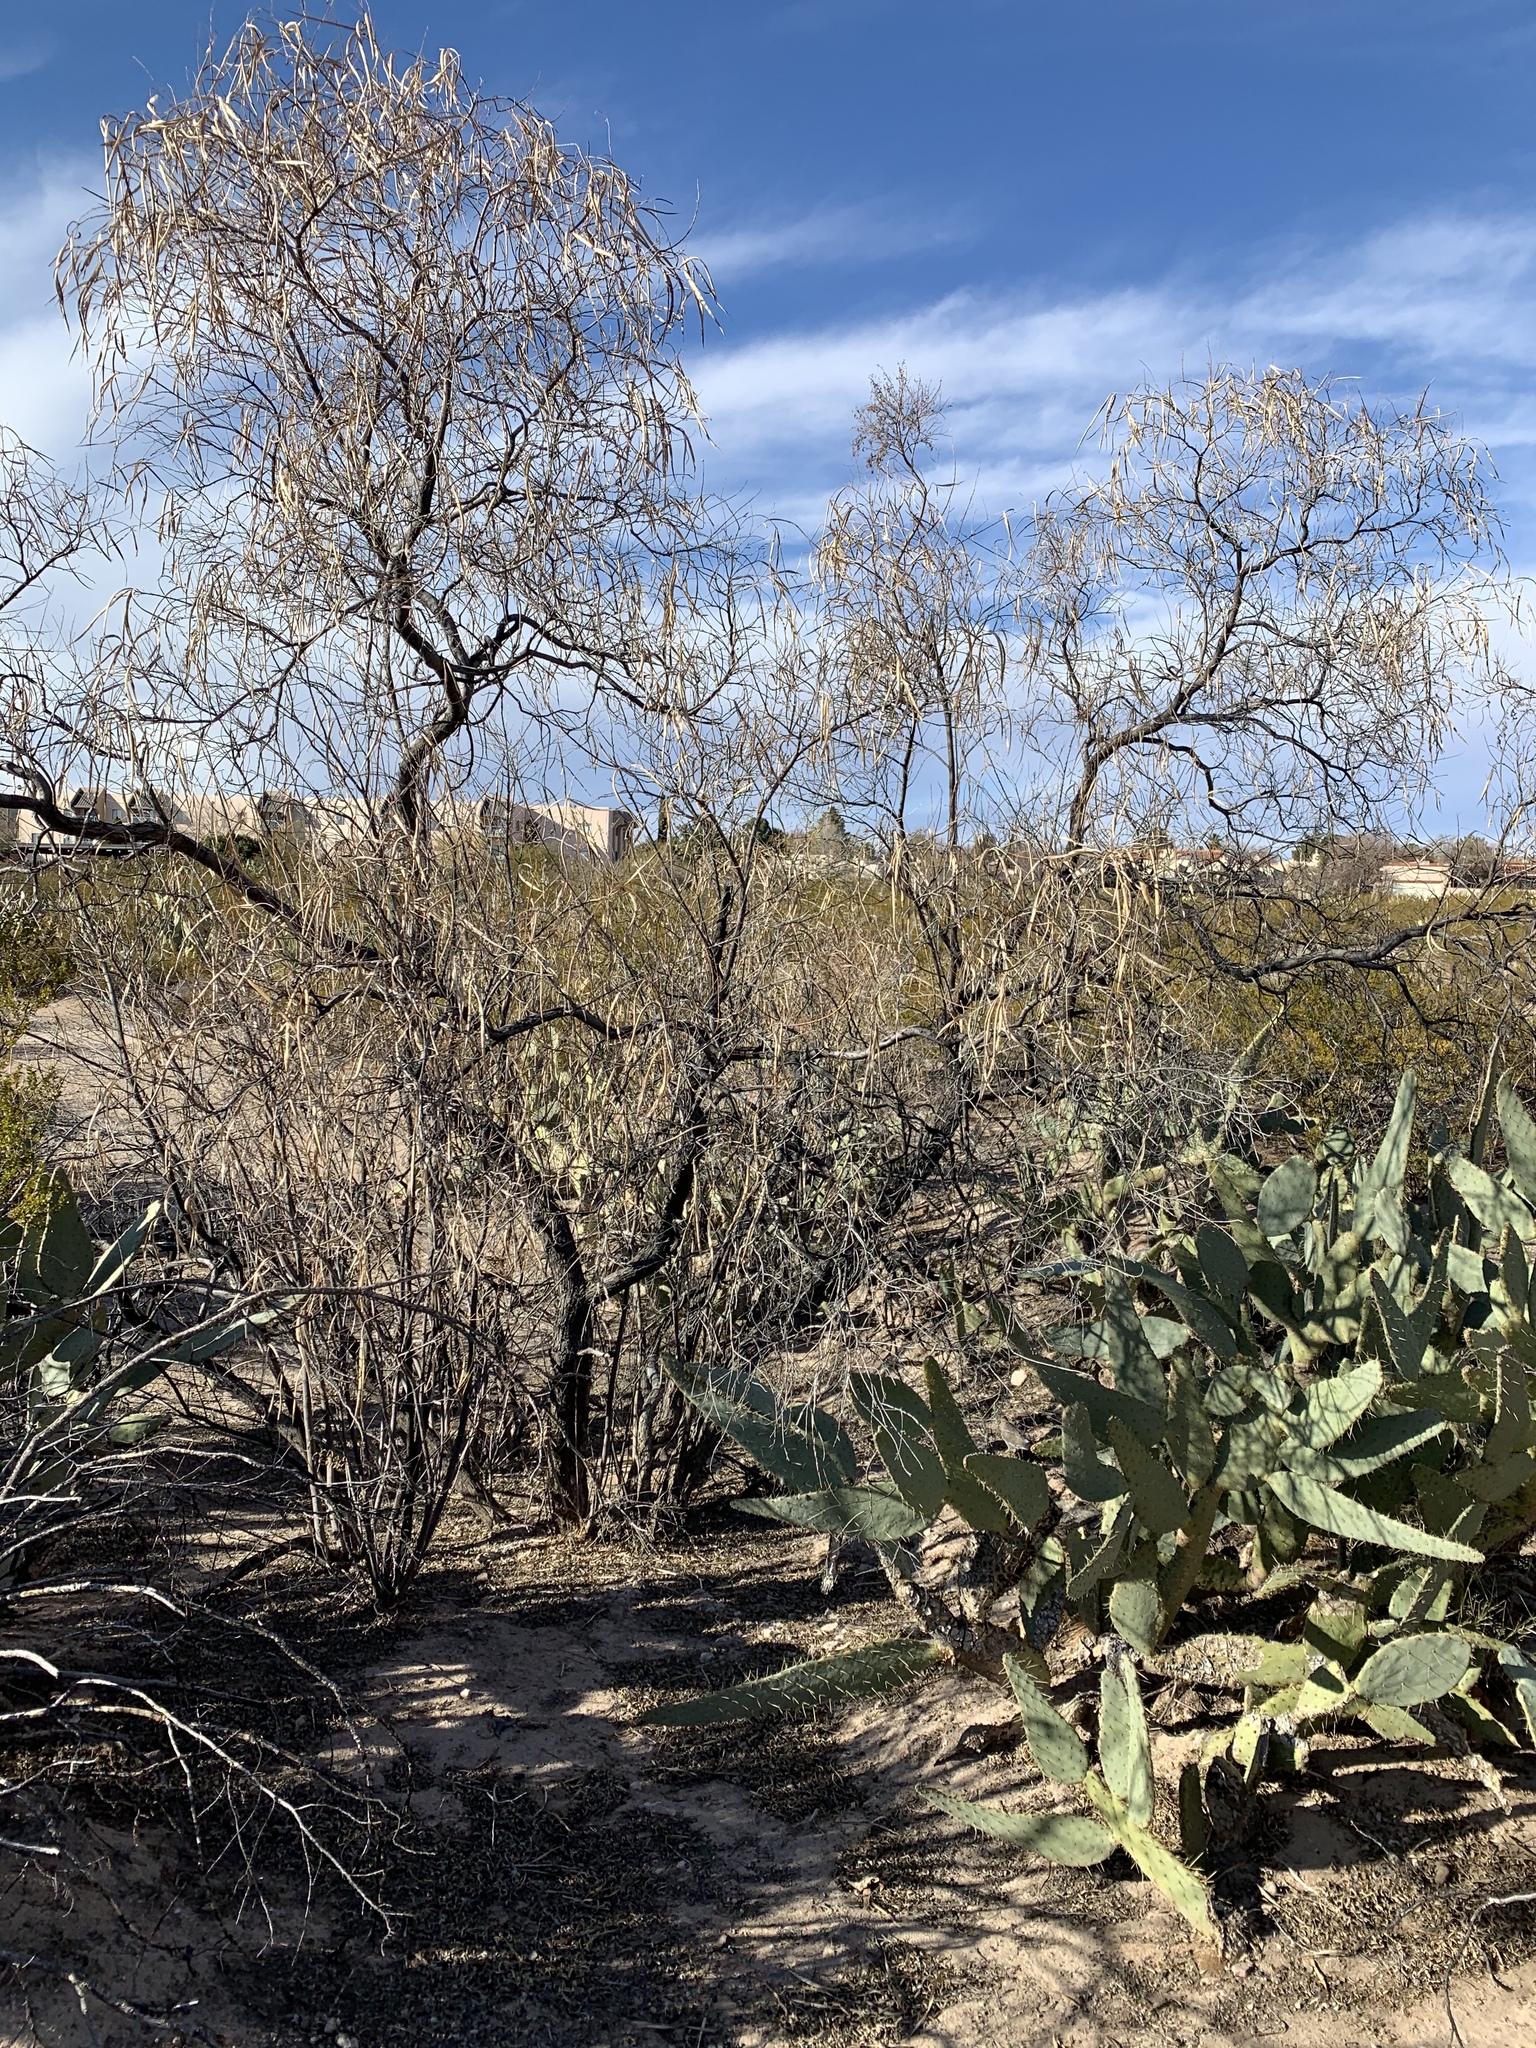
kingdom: Plantae
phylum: Tracheophyta
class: Magnoliopsida
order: Lamiales
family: Bignoniaceae
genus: Chilopsis
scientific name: Chilopsis linearis
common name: Desert-willow
